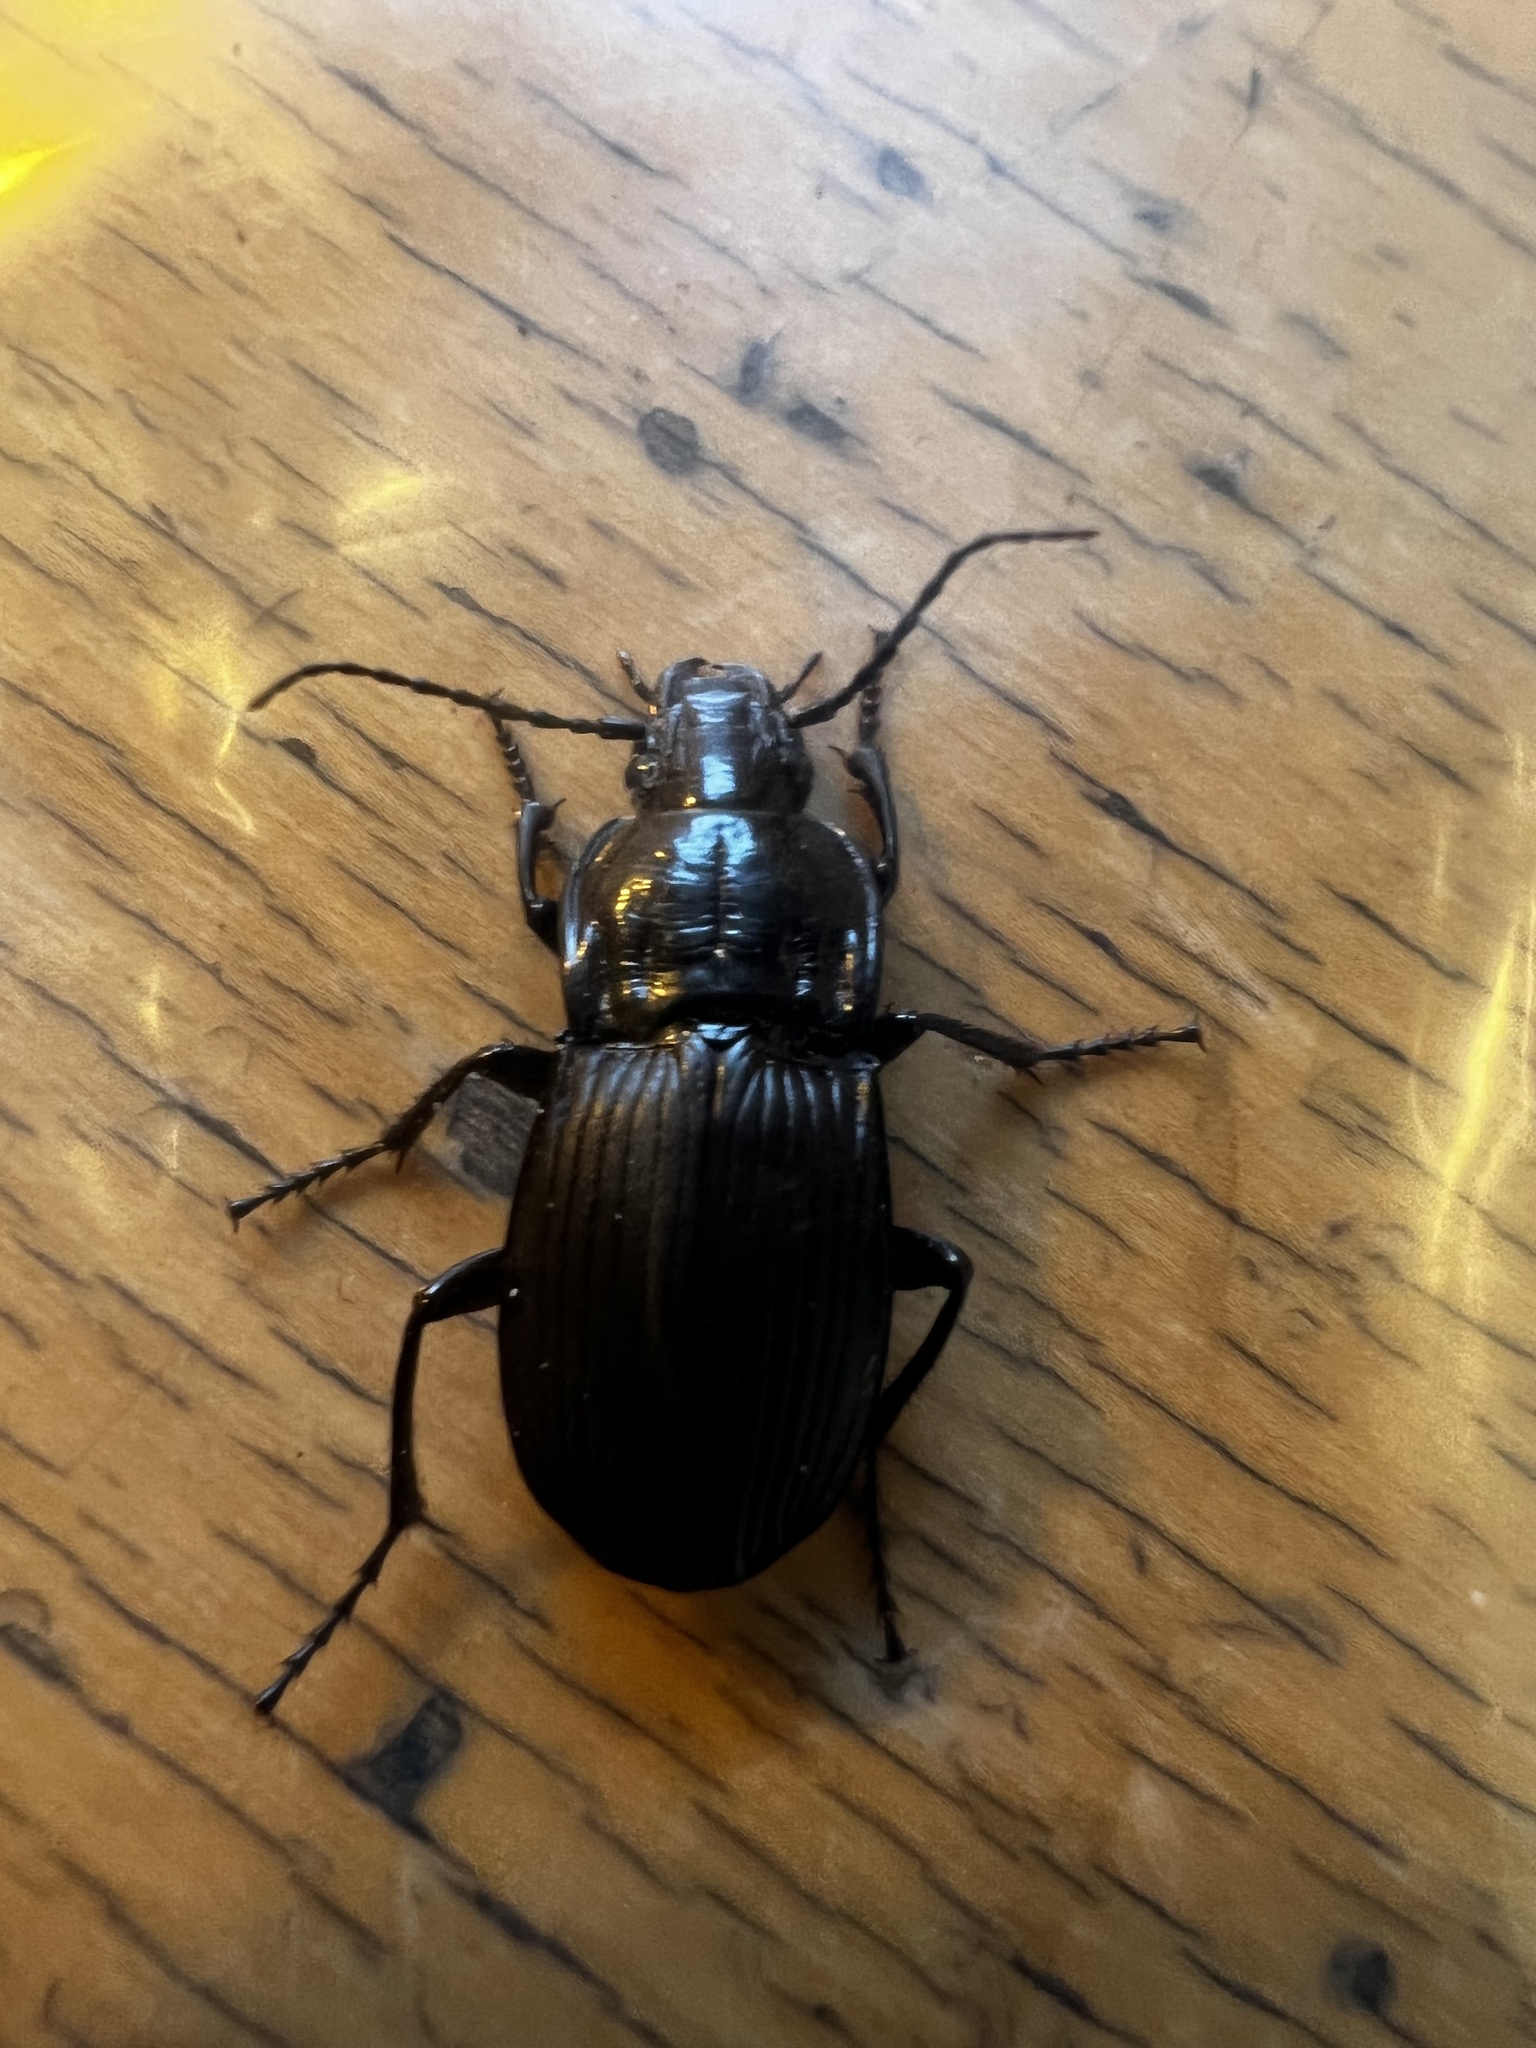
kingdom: Animalia
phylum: Arthropoda
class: Insecta
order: Coleoptera
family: Carabidae
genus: Abax
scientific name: Abax parallelepipedus
